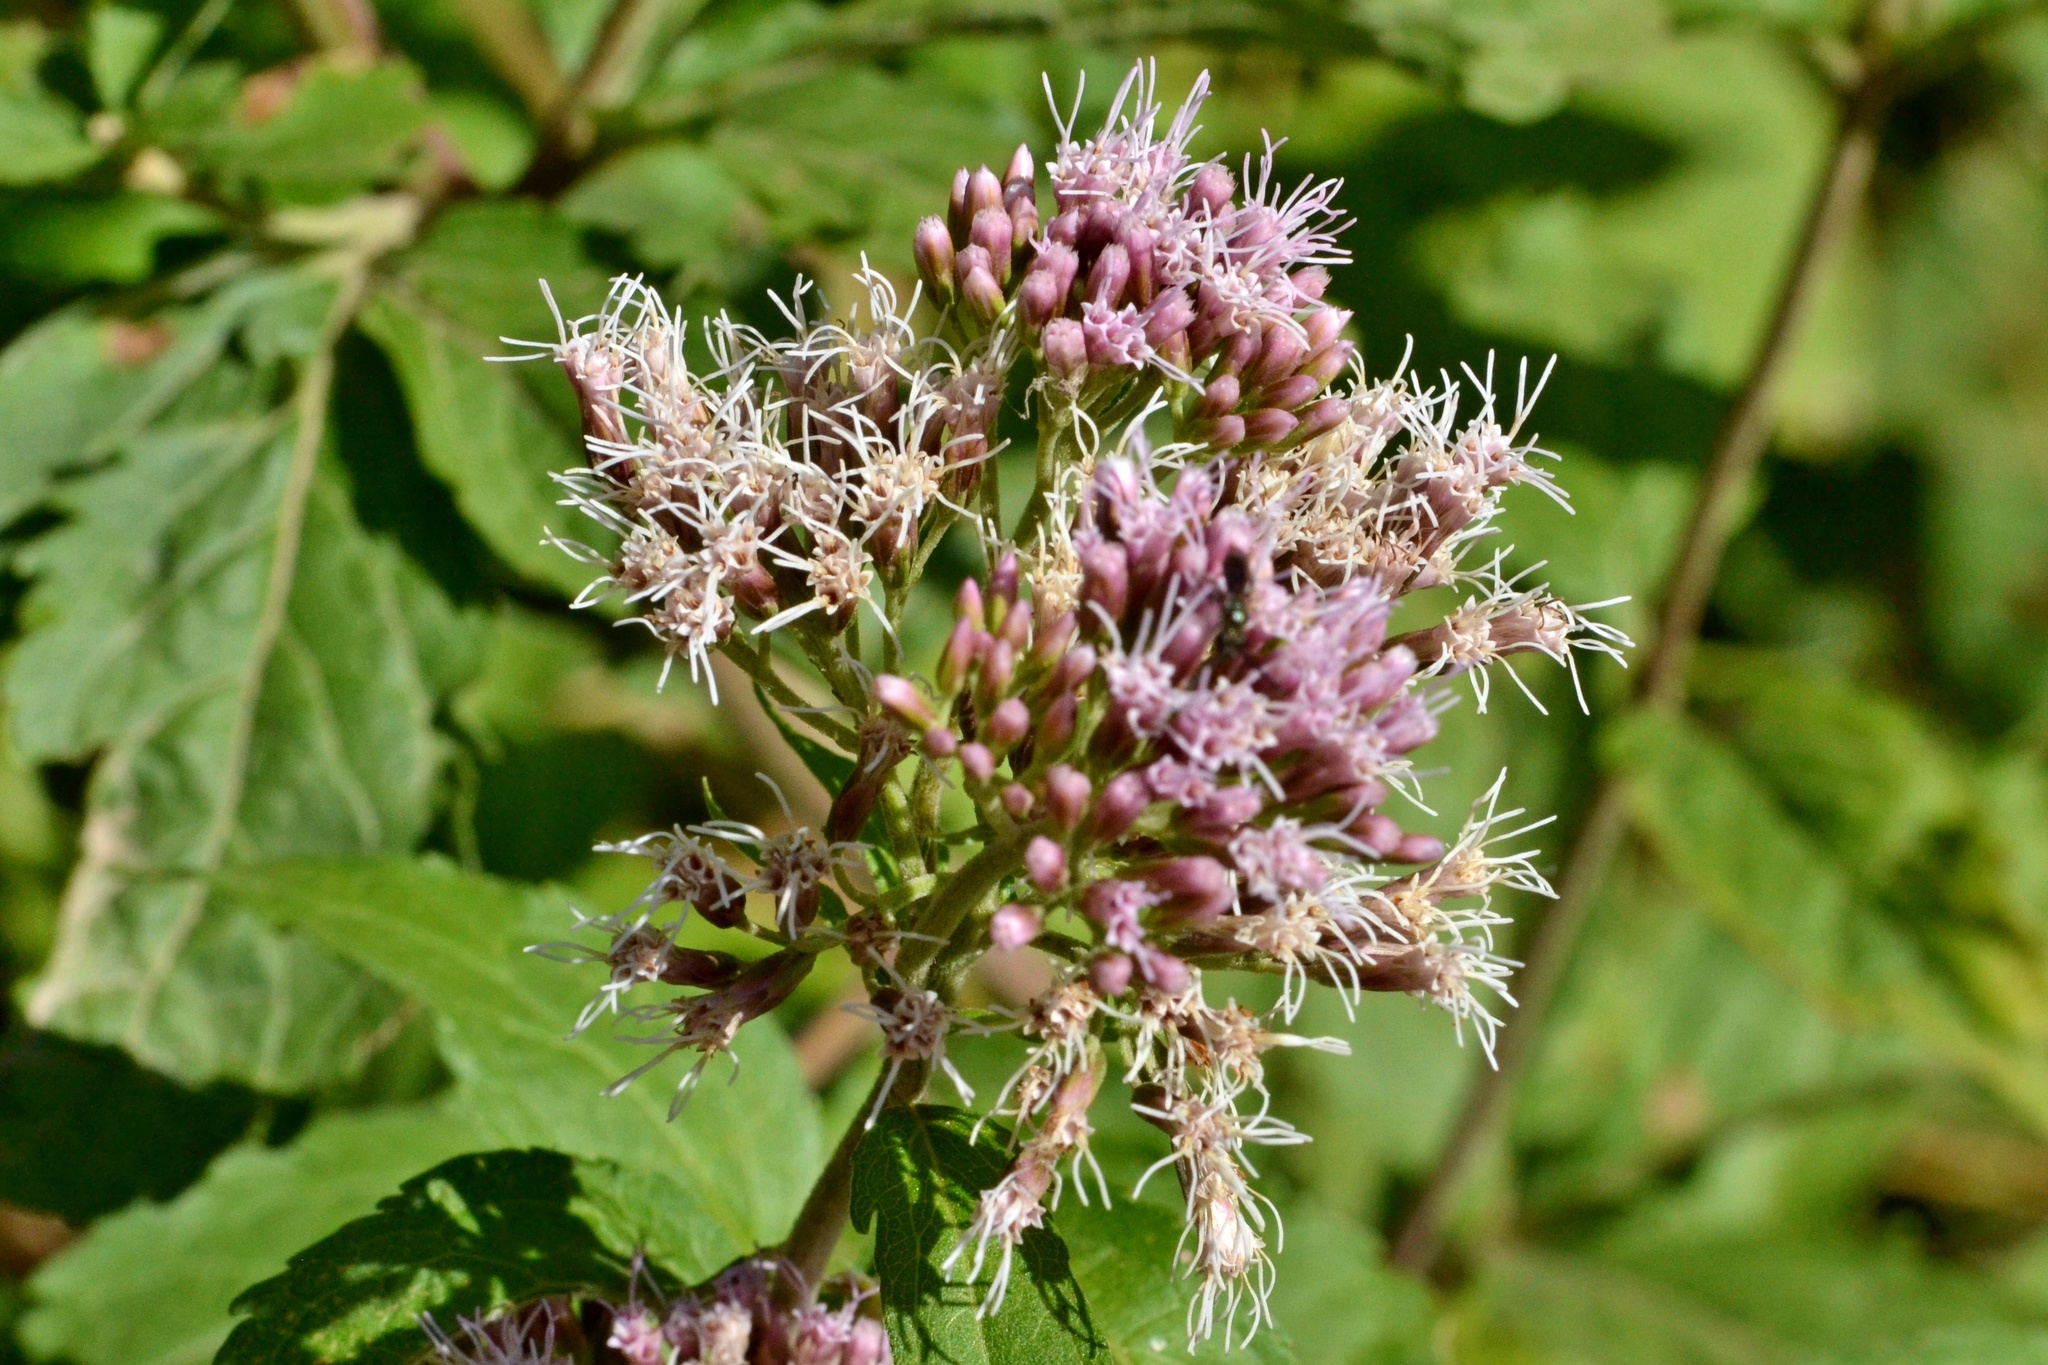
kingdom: Plantae
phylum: Tracheophyta
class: Magnoliopsida
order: Asterales
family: Asteraceae
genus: Eupatorium
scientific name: Eupatorium cannabinum
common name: Hemp-agrimony
